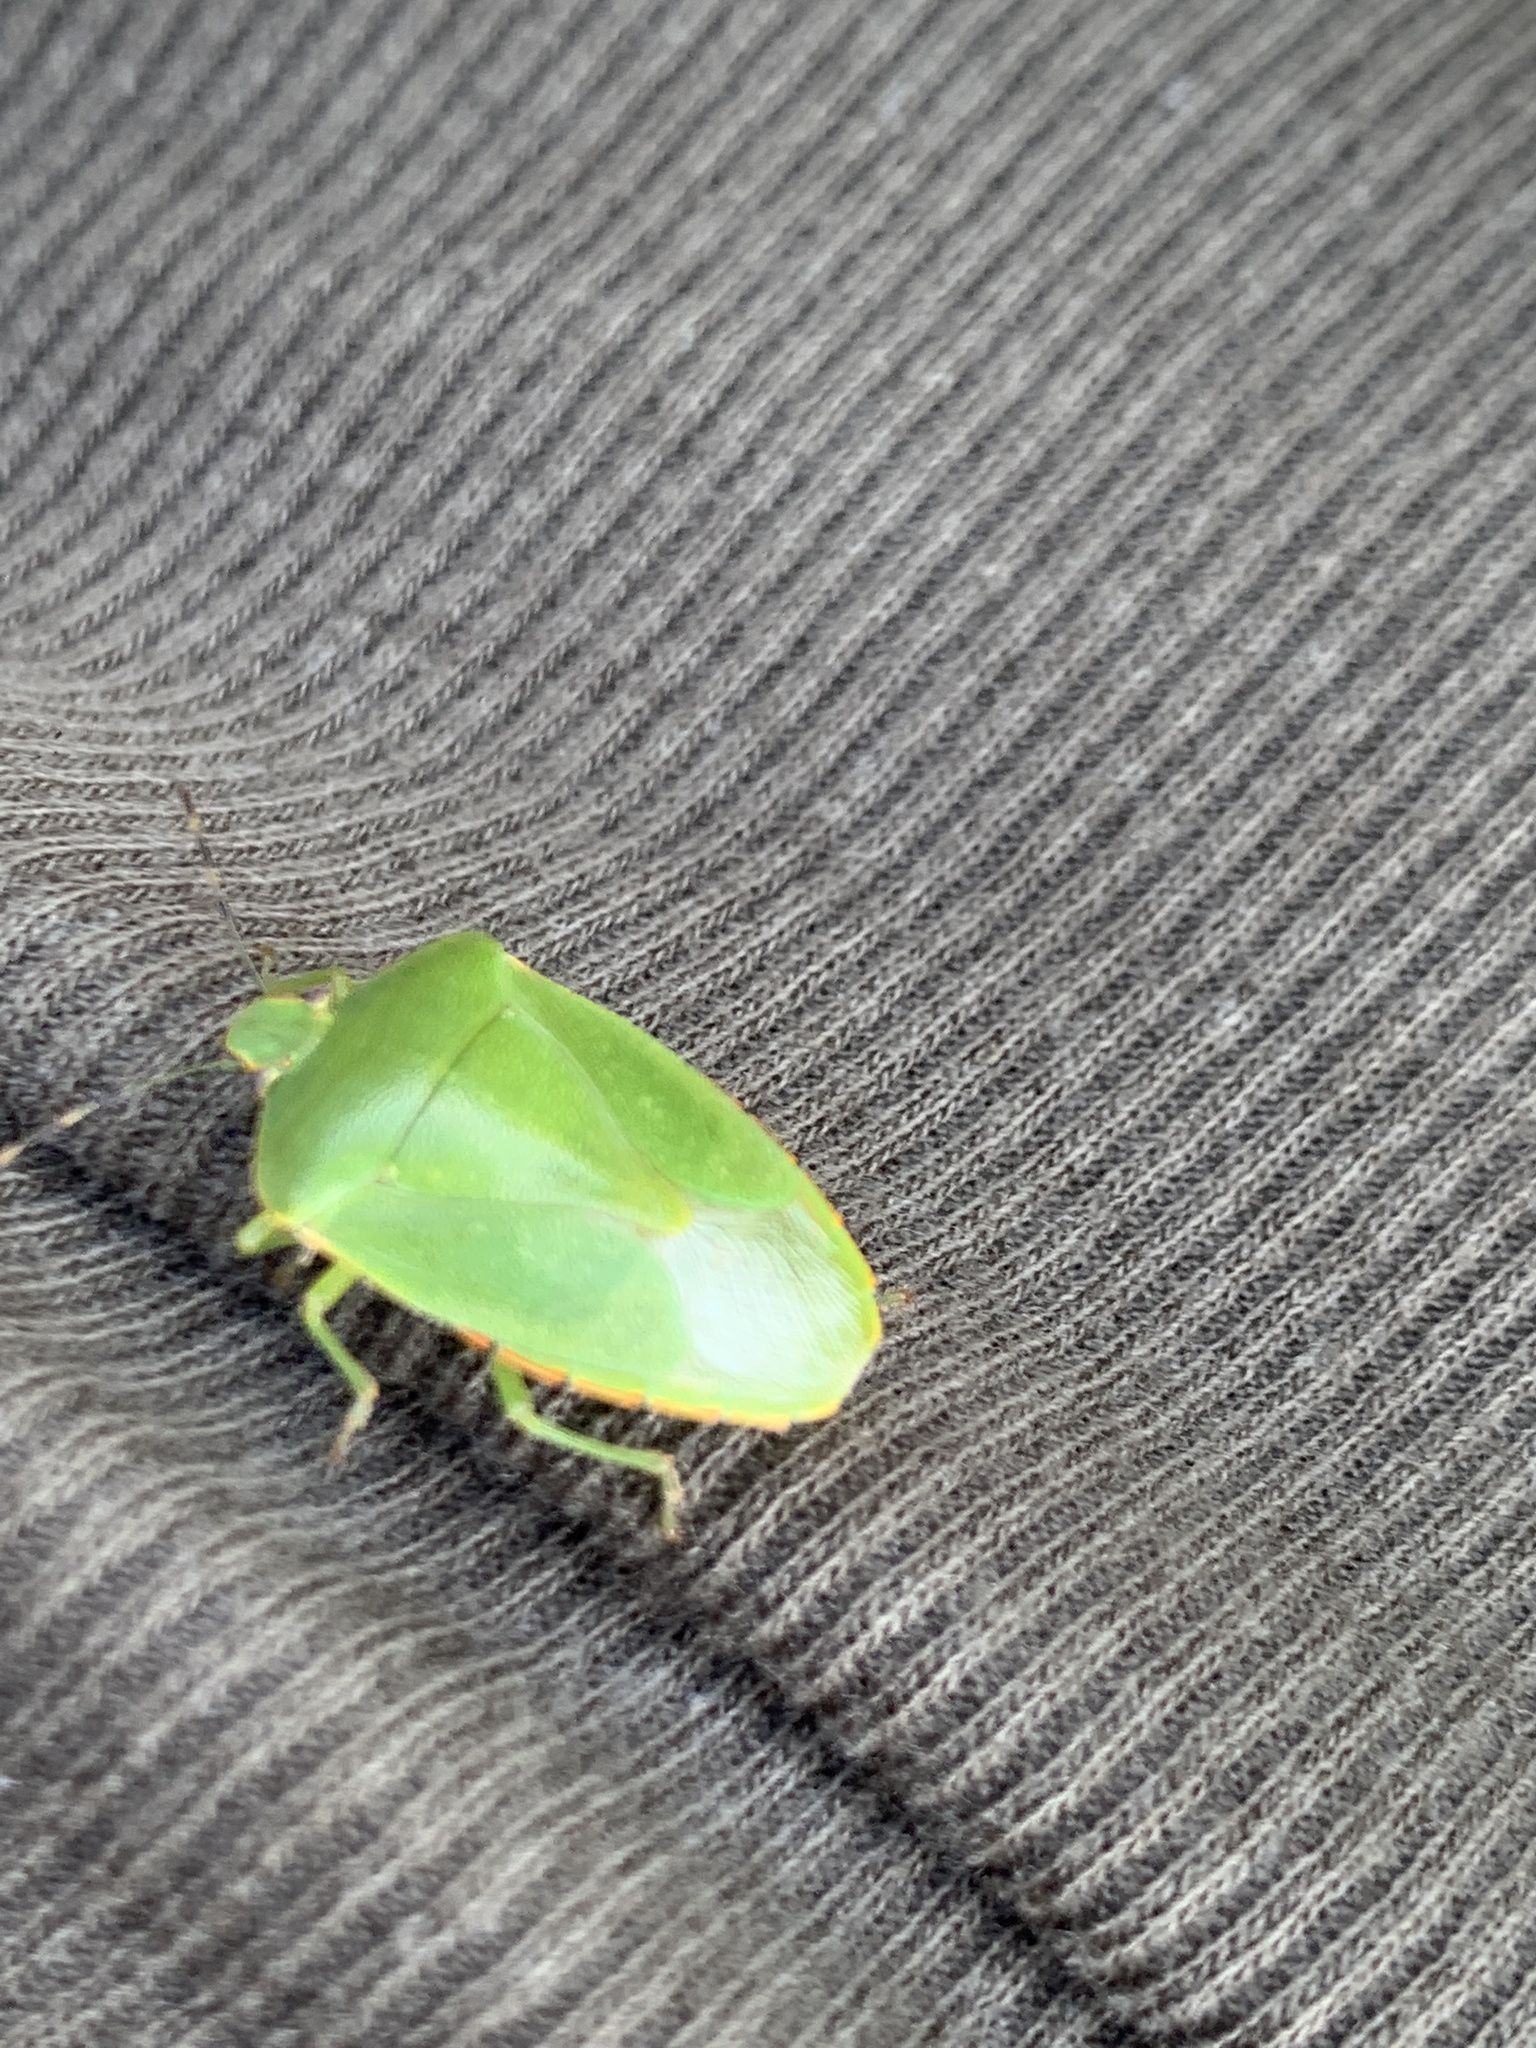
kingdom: Animalia
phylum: Arthropoda
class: Insecta
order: Hemiptera
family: Pentatomidae
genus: Chinavia
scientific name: Chinavia hilaris
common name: Green stink bug
